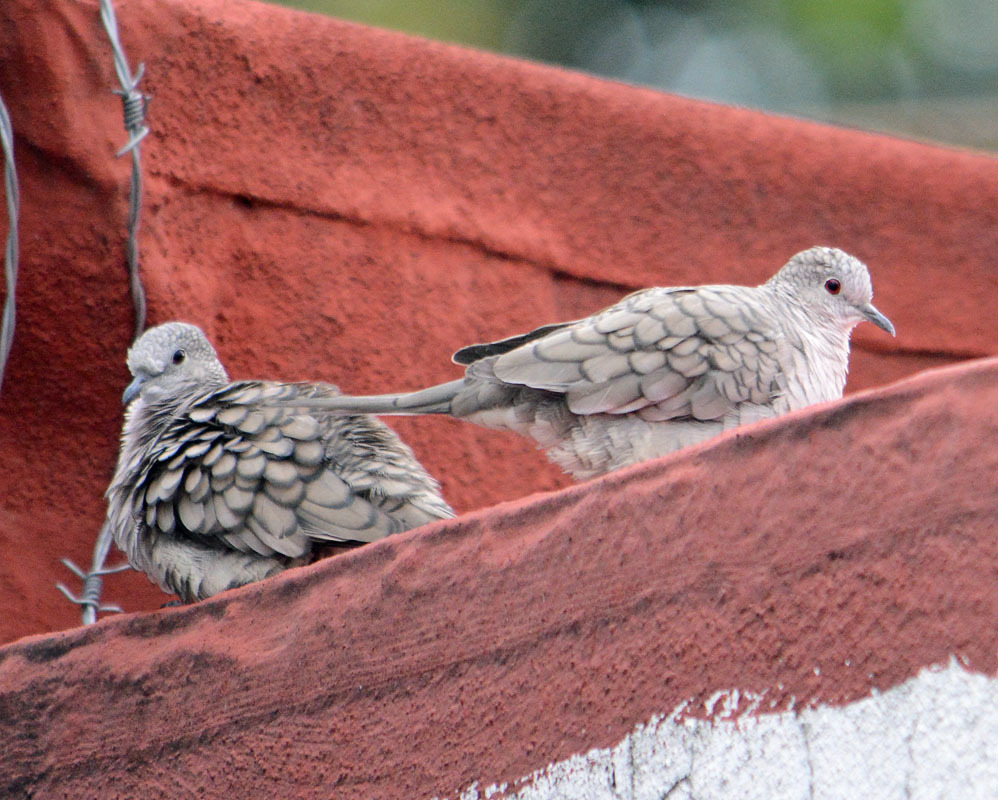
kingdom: Animalia
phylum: Chordata
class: Aves
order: Columbiformes
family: Columbidae
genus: Columbina
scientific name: Columbina inca
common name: Inca dove
